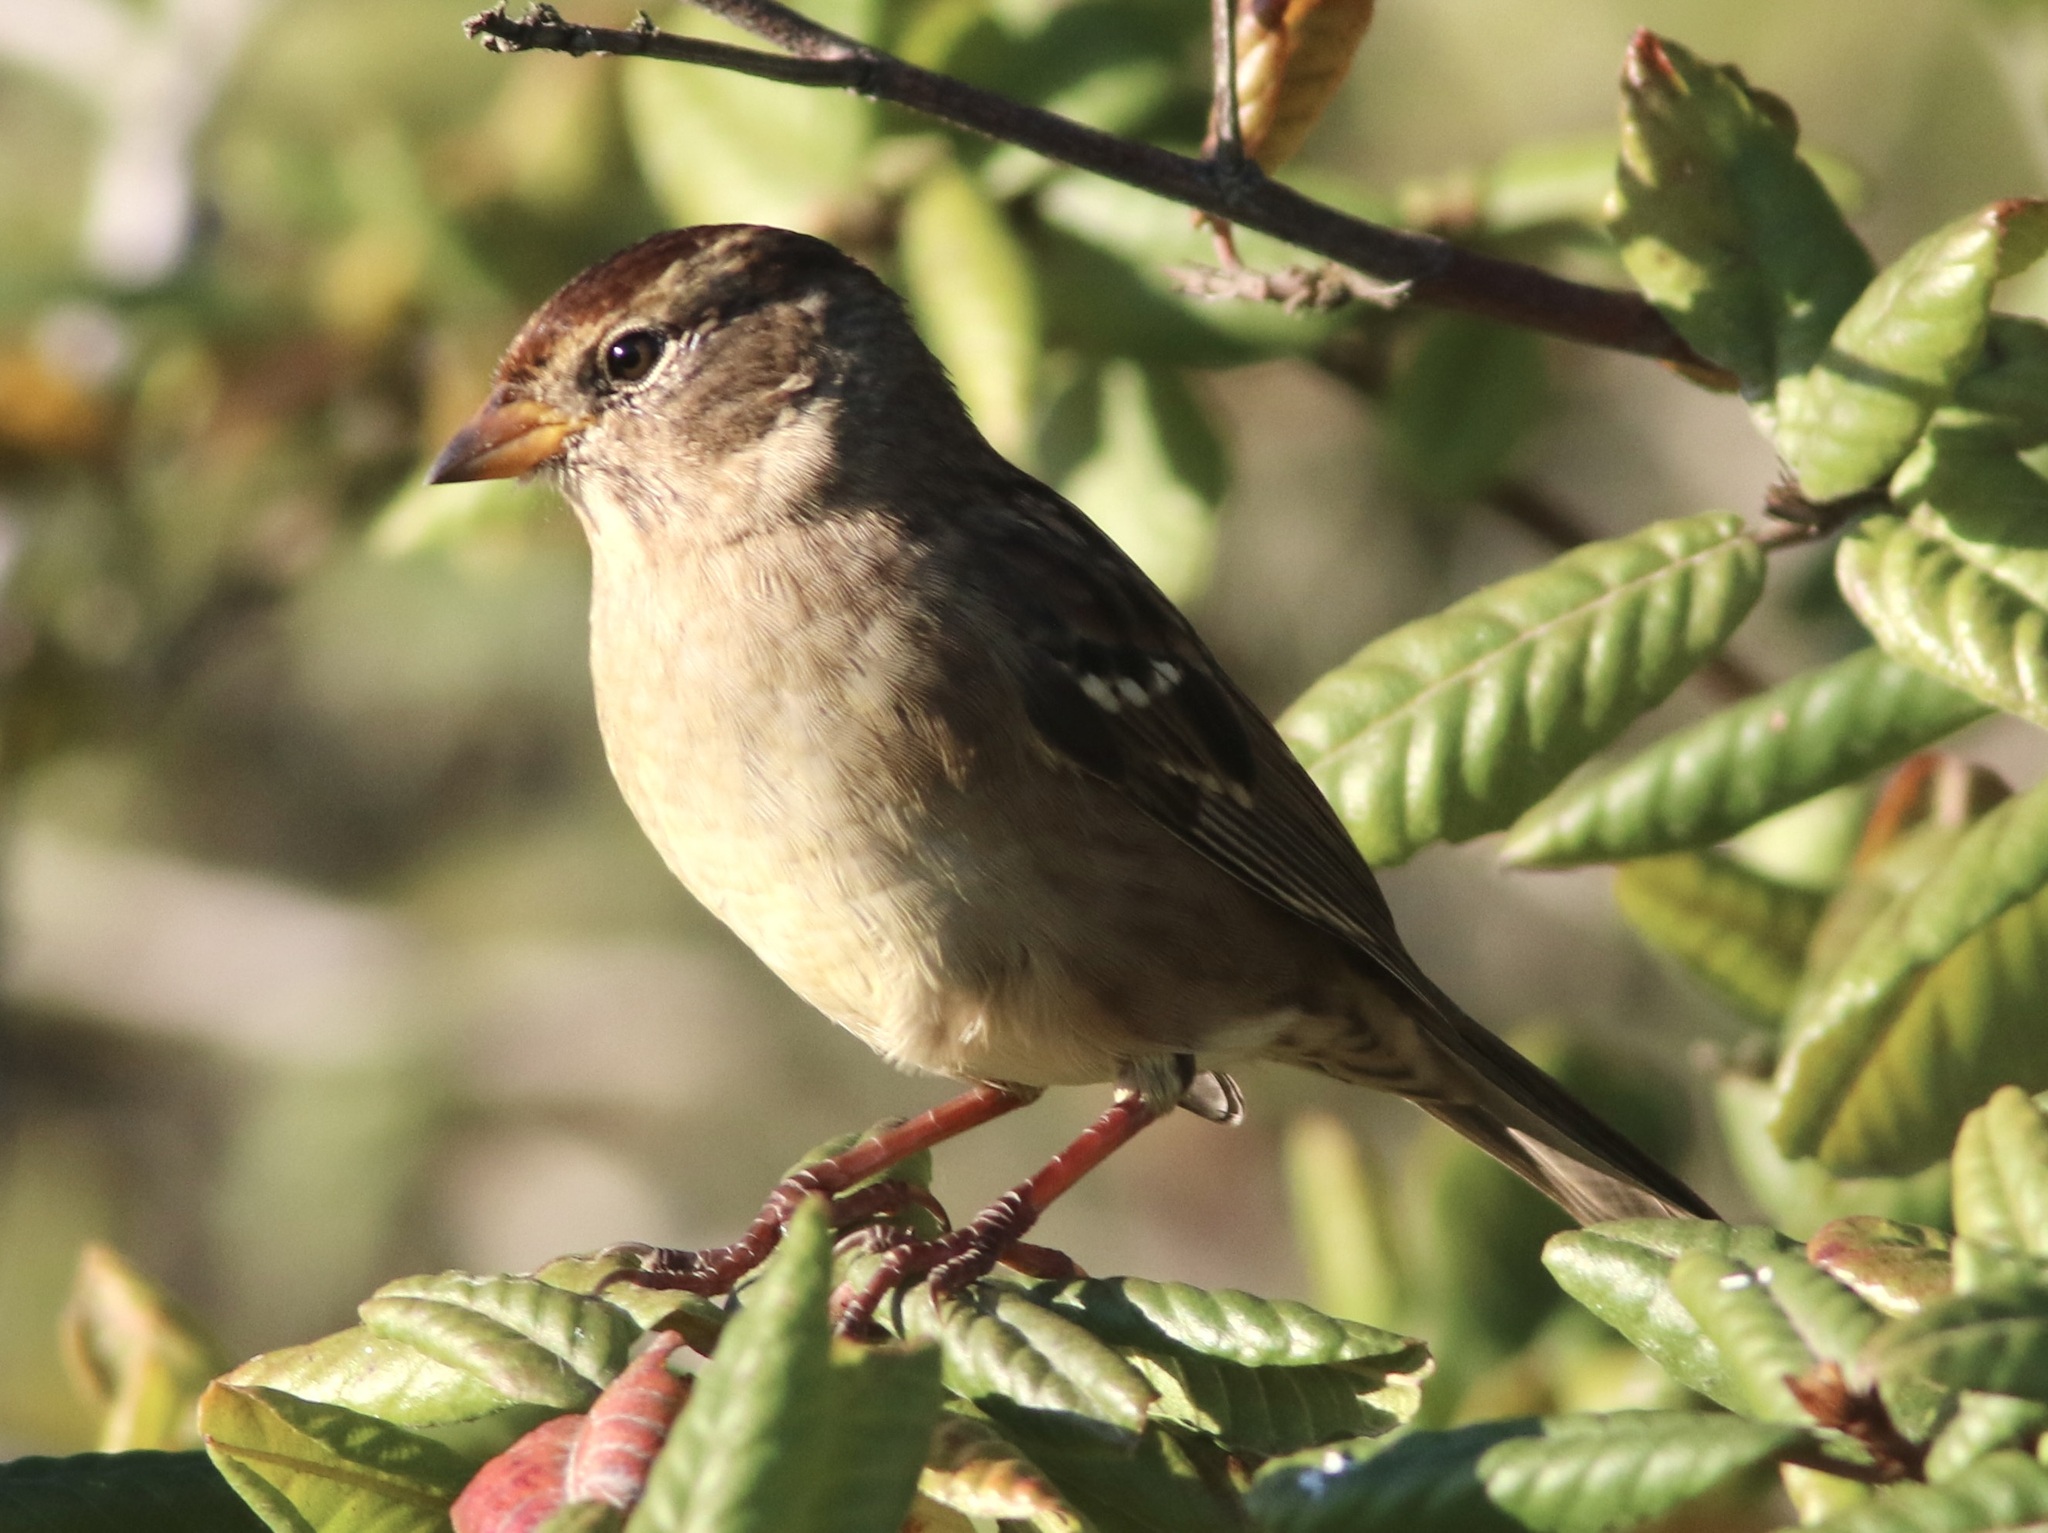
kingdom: Animalia
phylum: Chordata
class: Aves
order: Passeriformes
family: Passerellidae
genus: Zonotrichia
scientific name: Zonotrichia leucophrys
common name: White-crowned sparrow
